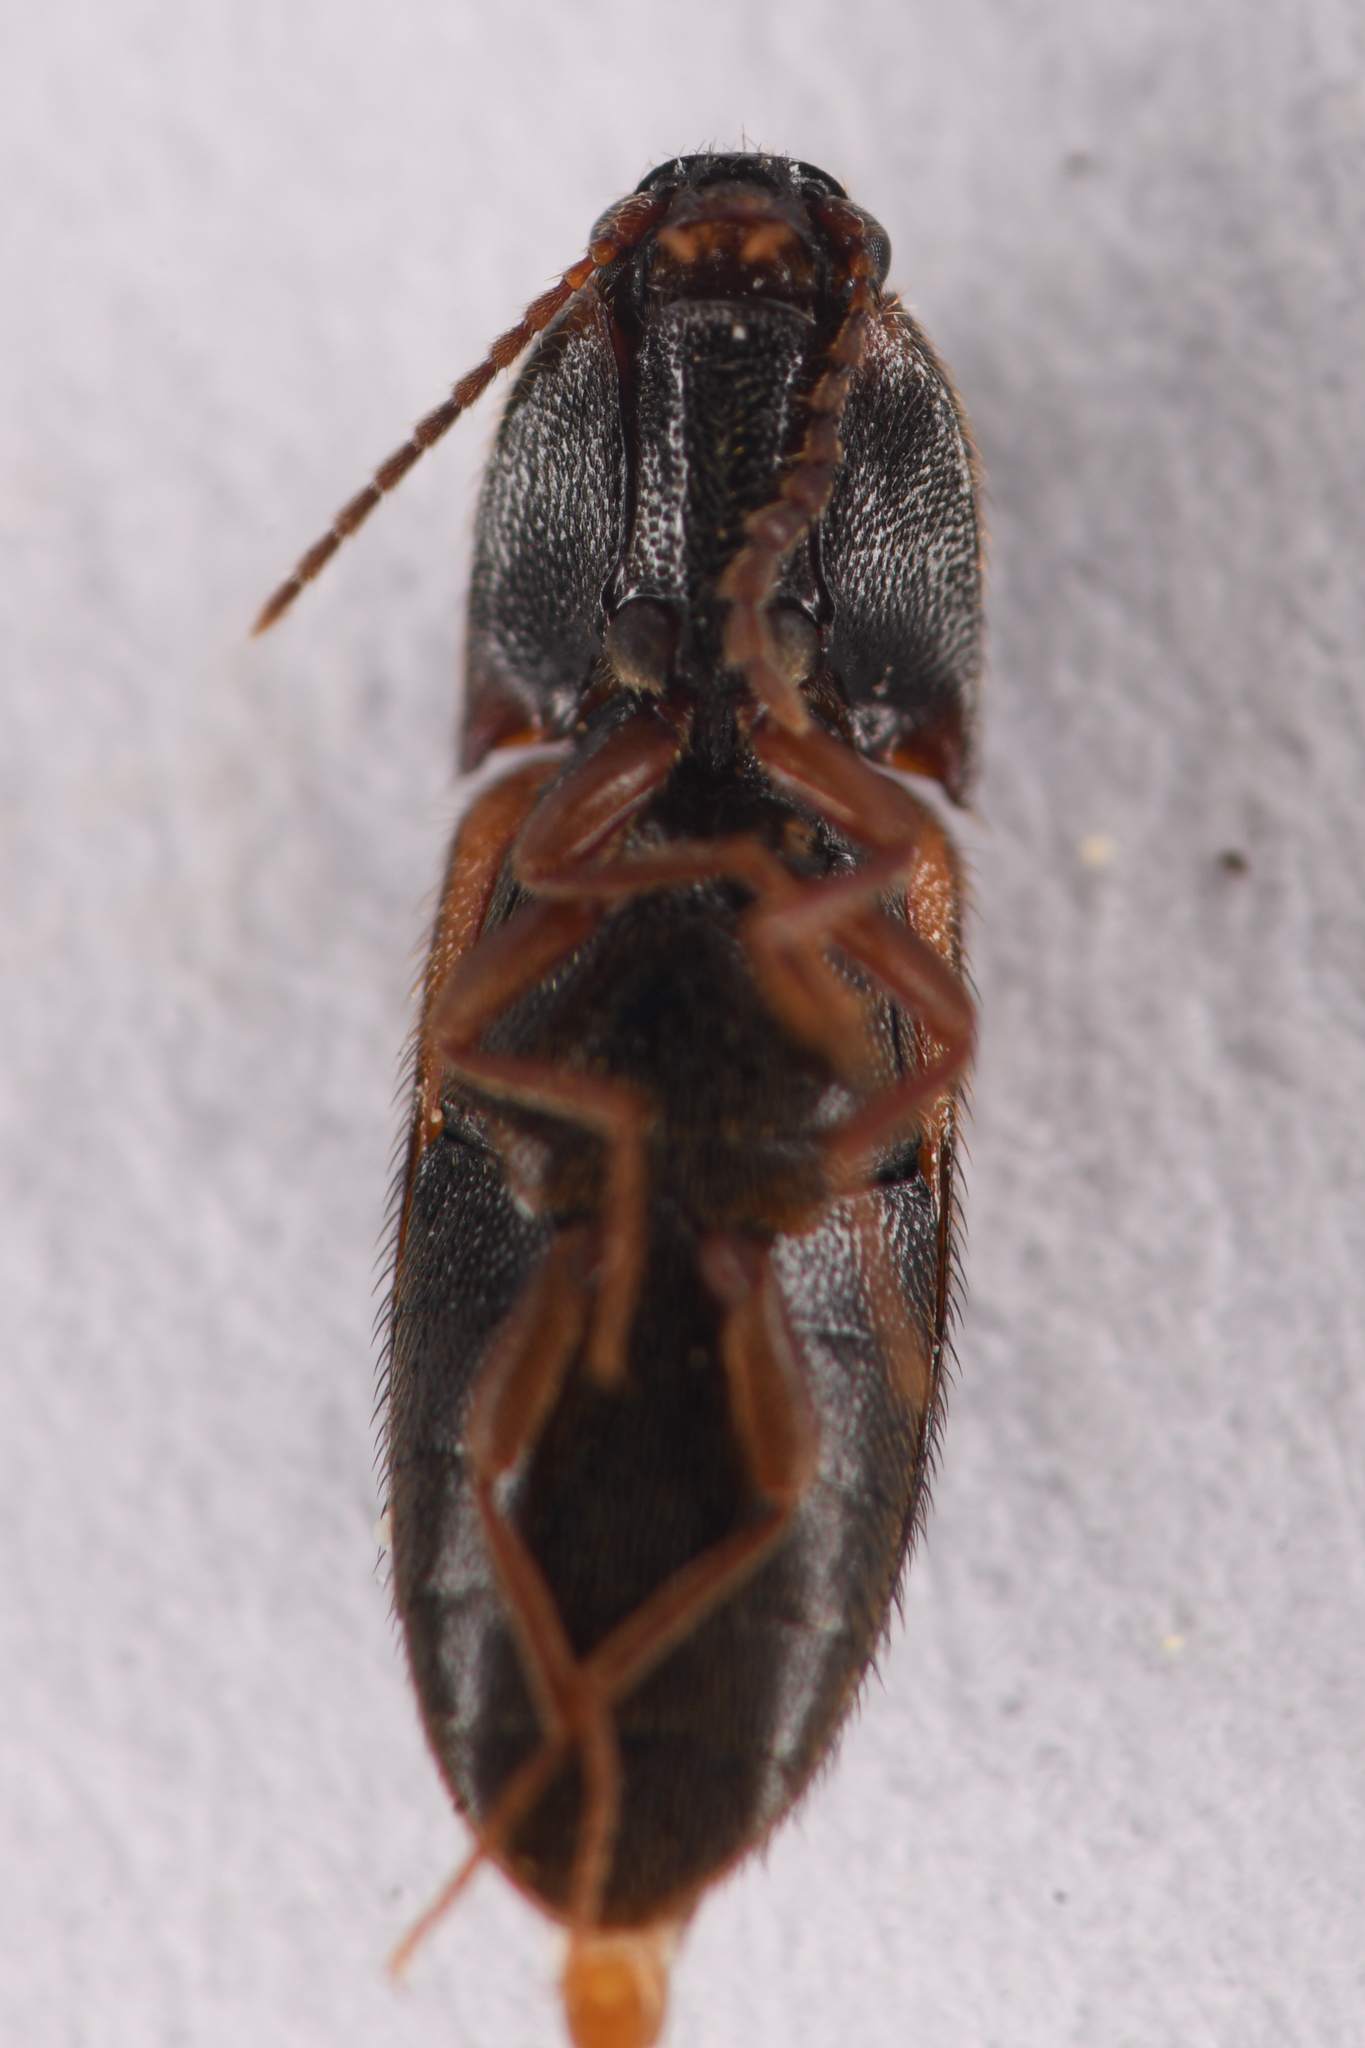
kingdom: Animalia
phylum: Arthropoda
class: Insecta
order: Coleoptera
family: Elateridae
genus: Ampedus
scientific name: Ampedus pullus
